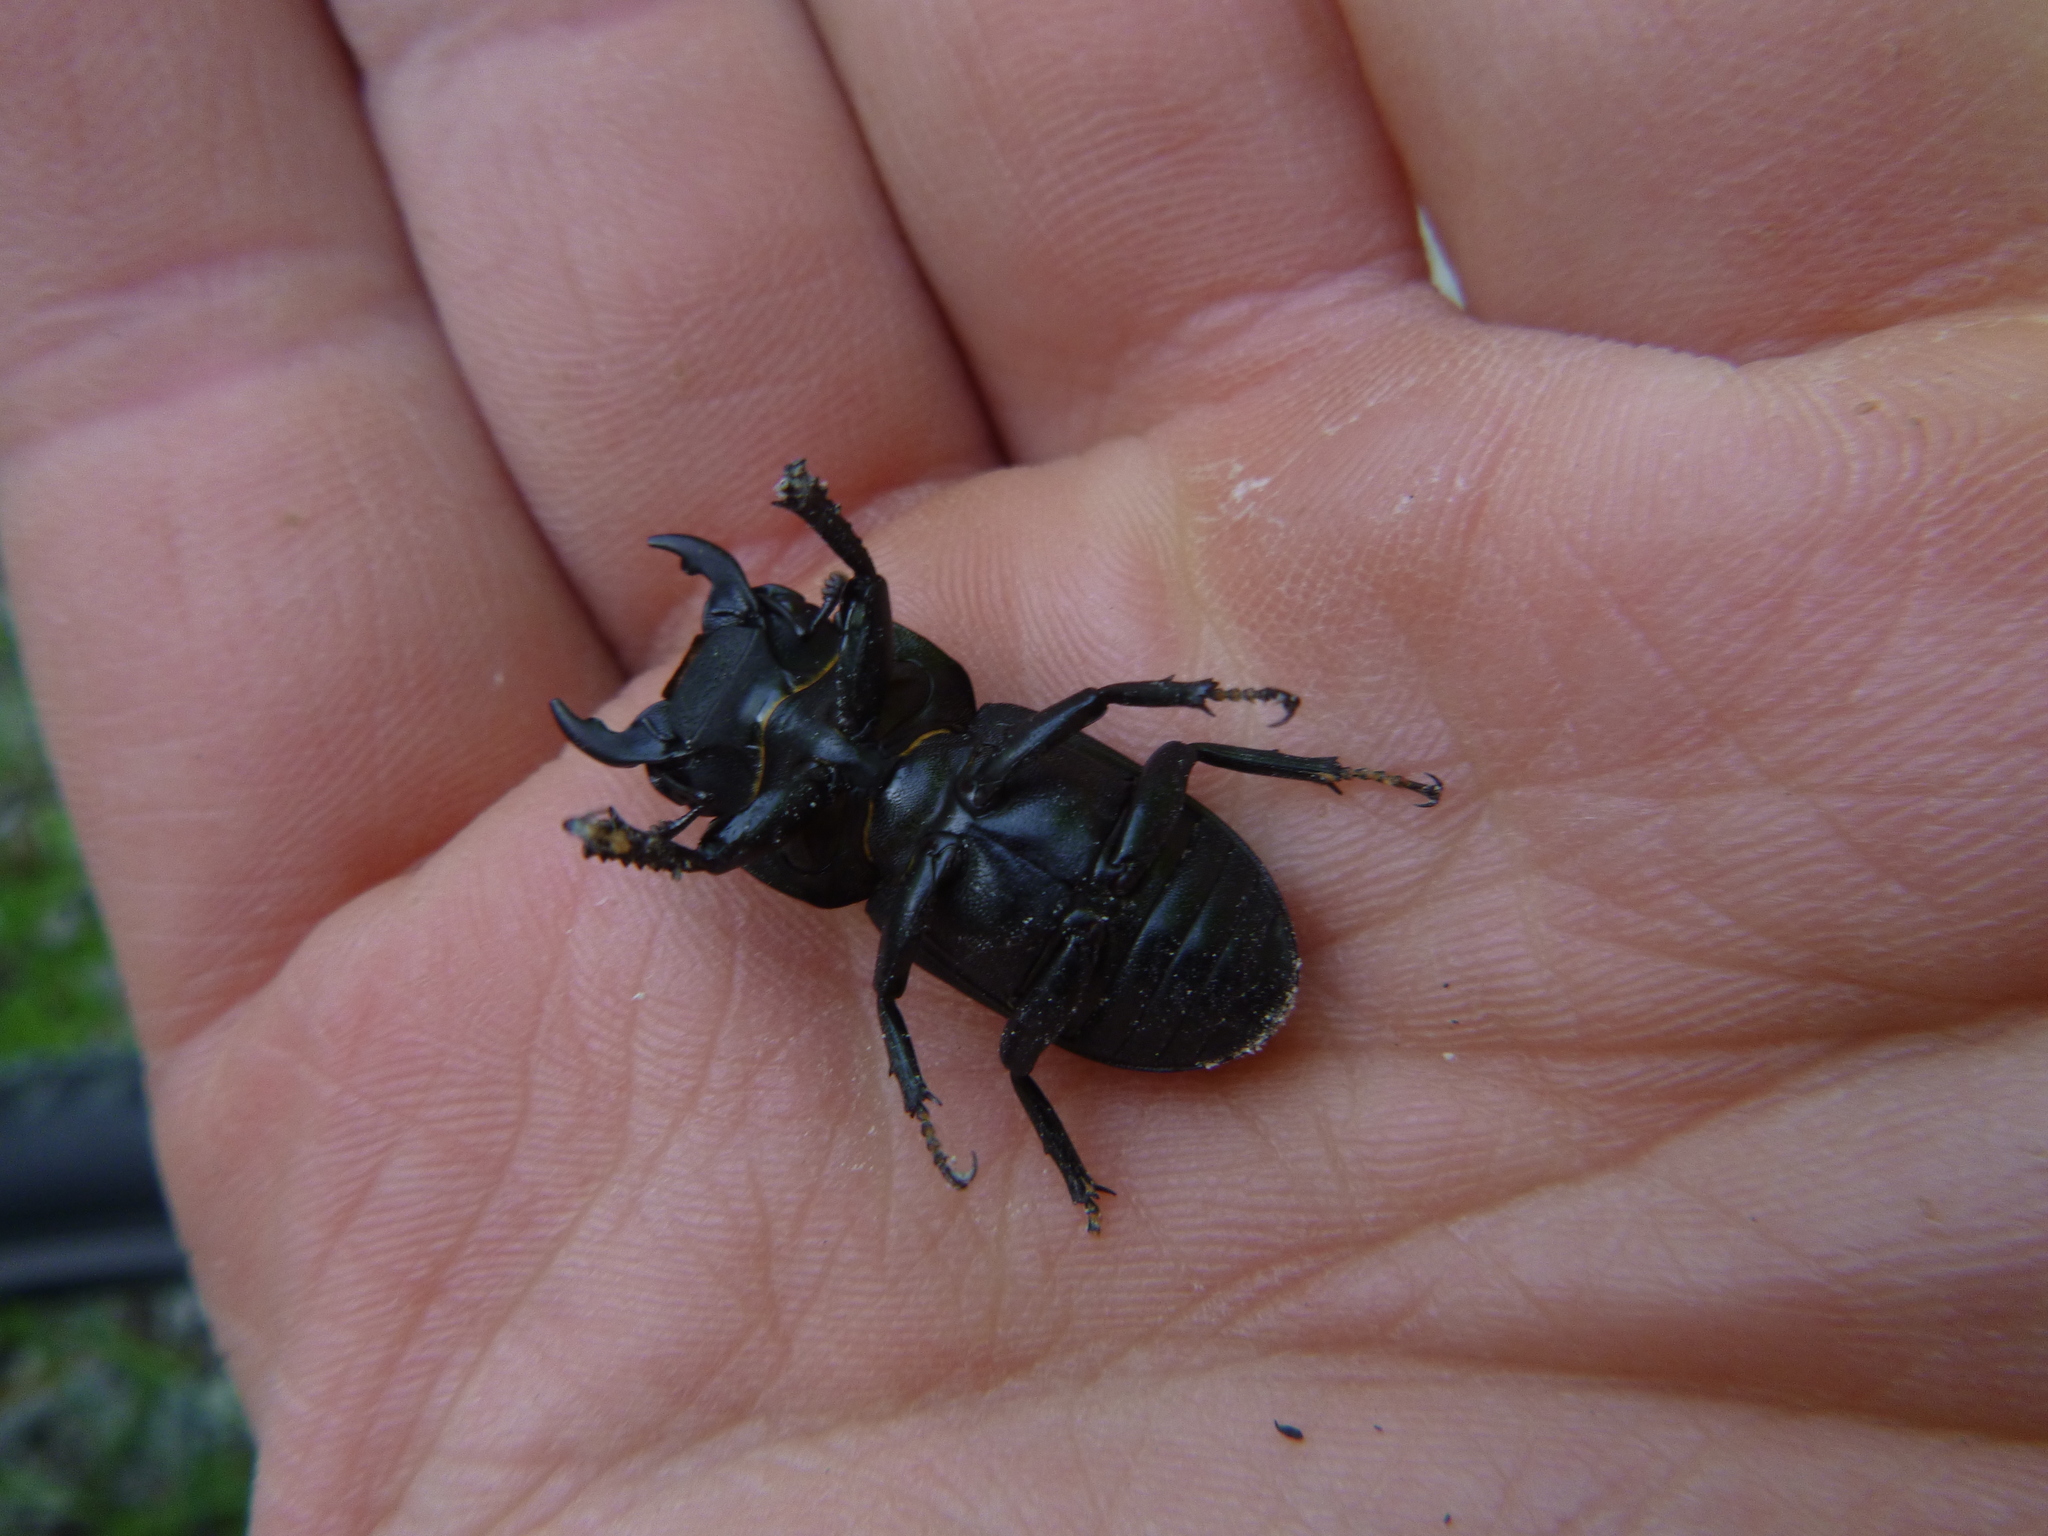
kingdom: Animalia
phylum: Arthropoda
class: Insecta
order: Coleoptera
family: Lucanidae
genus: Dorcus
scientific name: Dorcus parallelipipedus
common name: Lesser stag beetle
